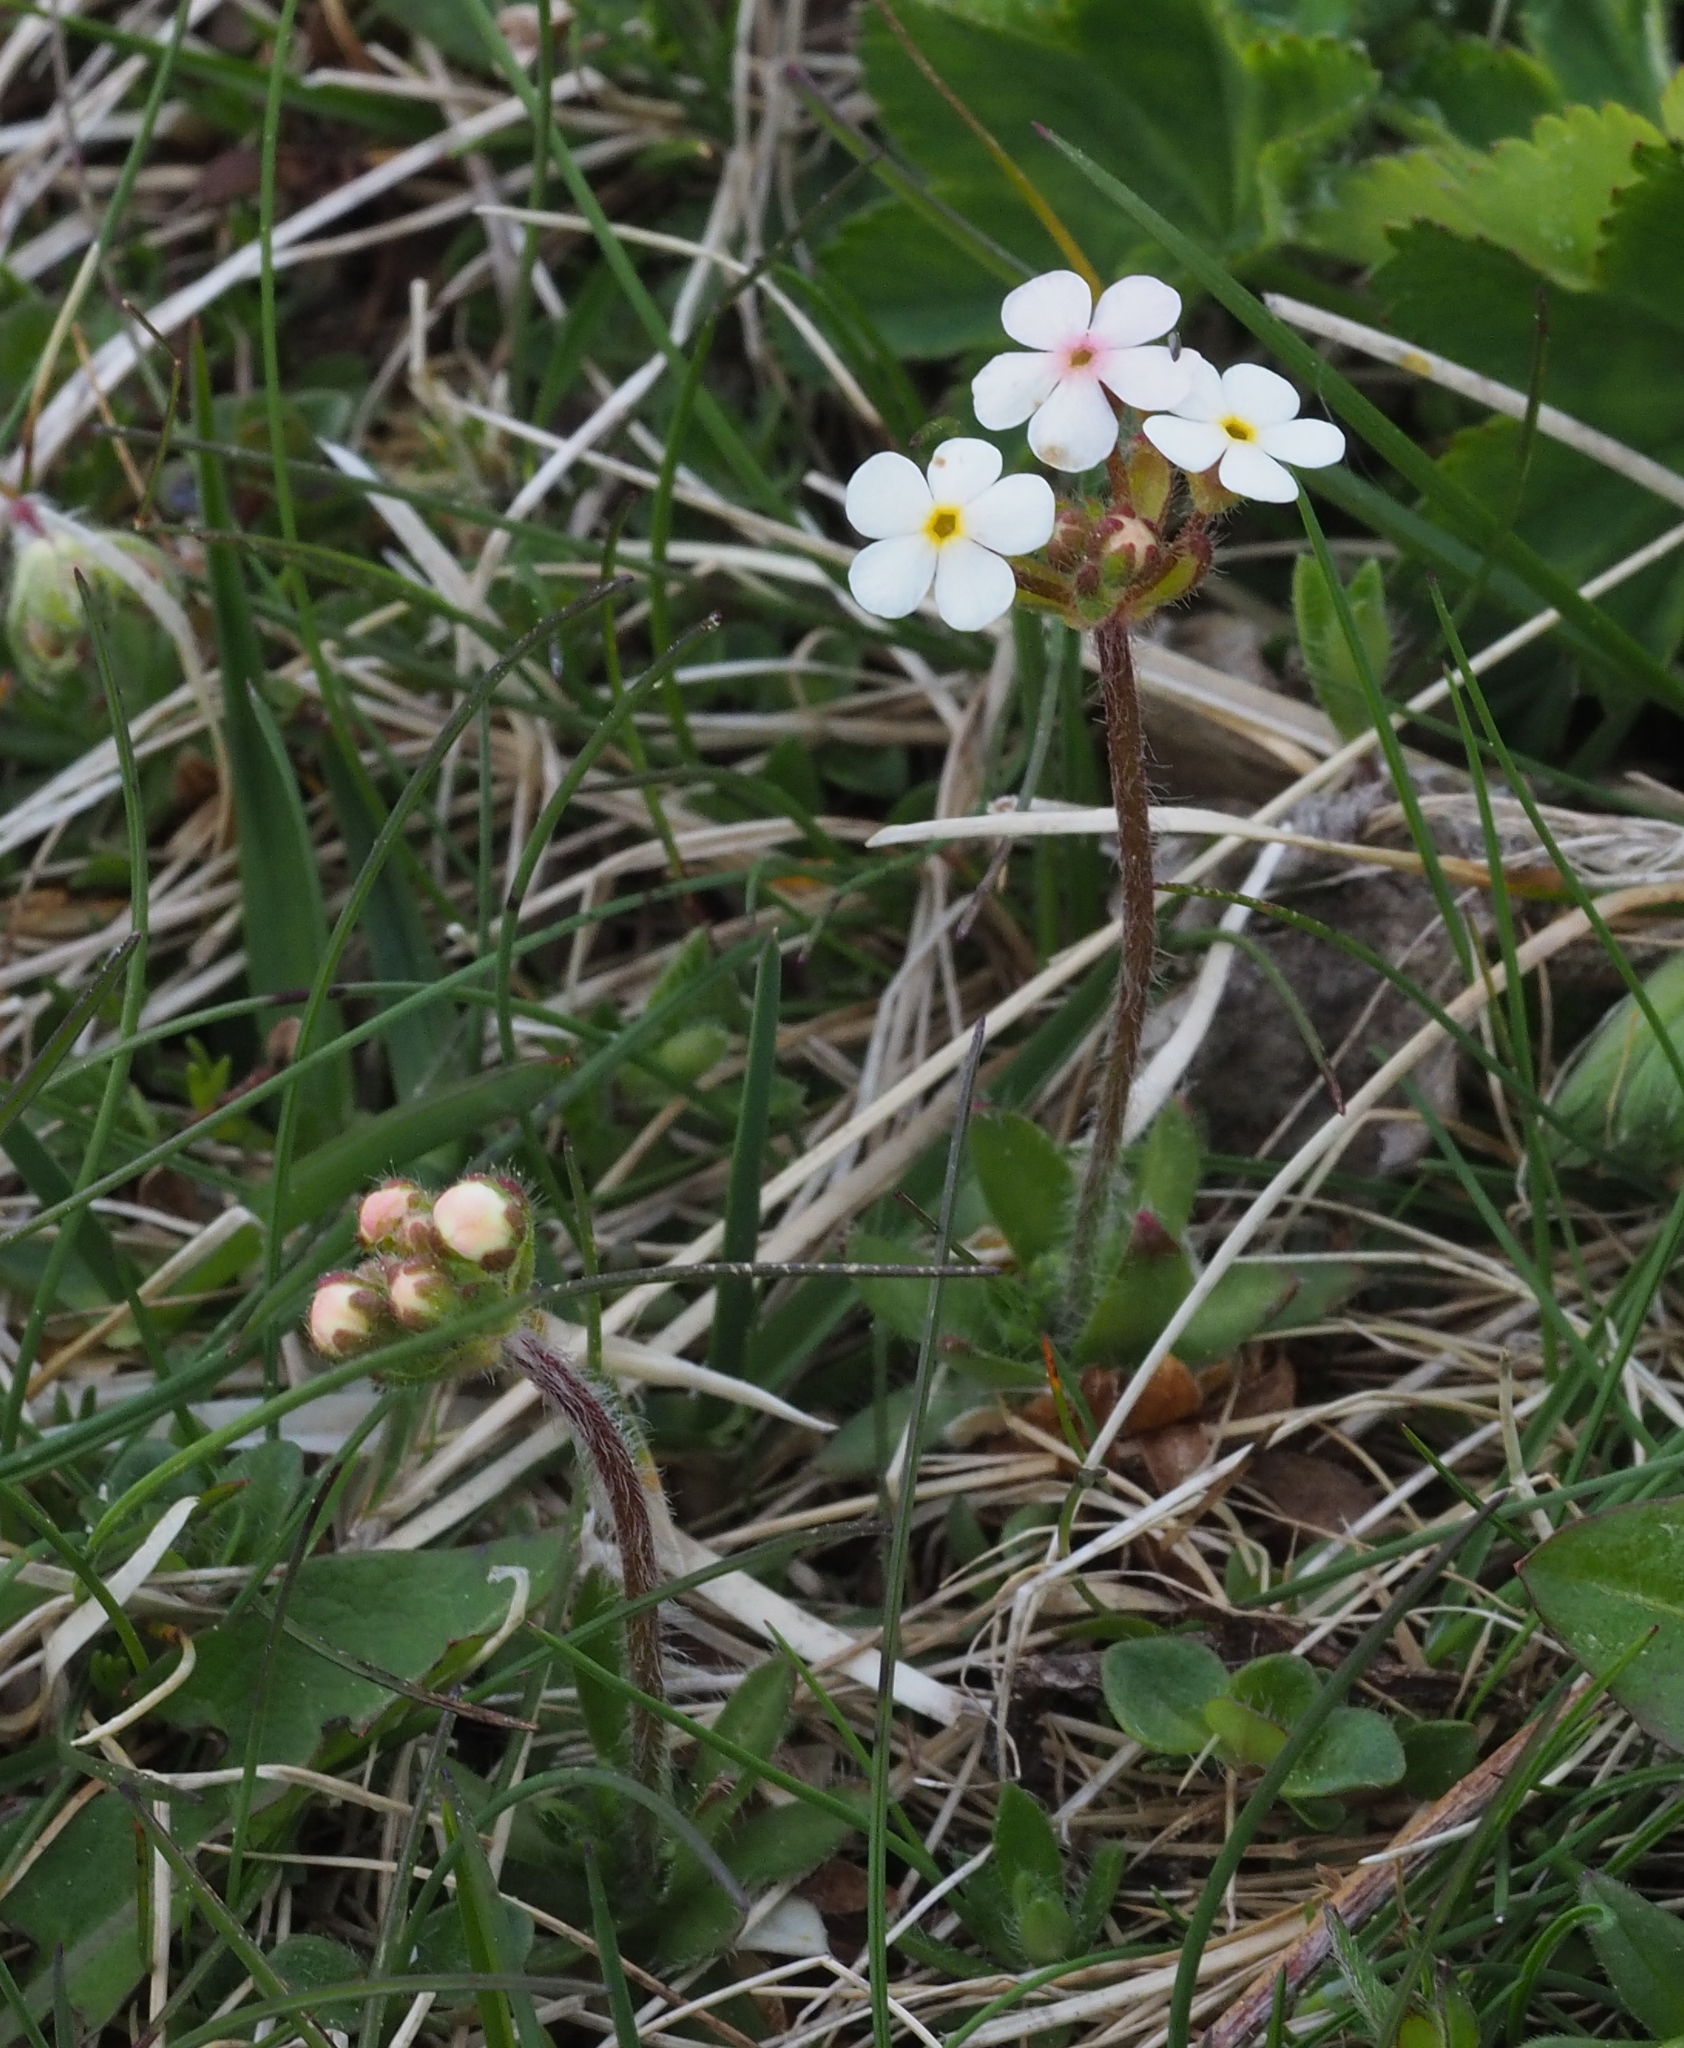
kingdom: Plantae
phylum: Tracheophyta
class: Magnoliopsida
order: Ericales
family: Primulaceae
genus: Androsace
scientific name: Androsace chamaejasme
